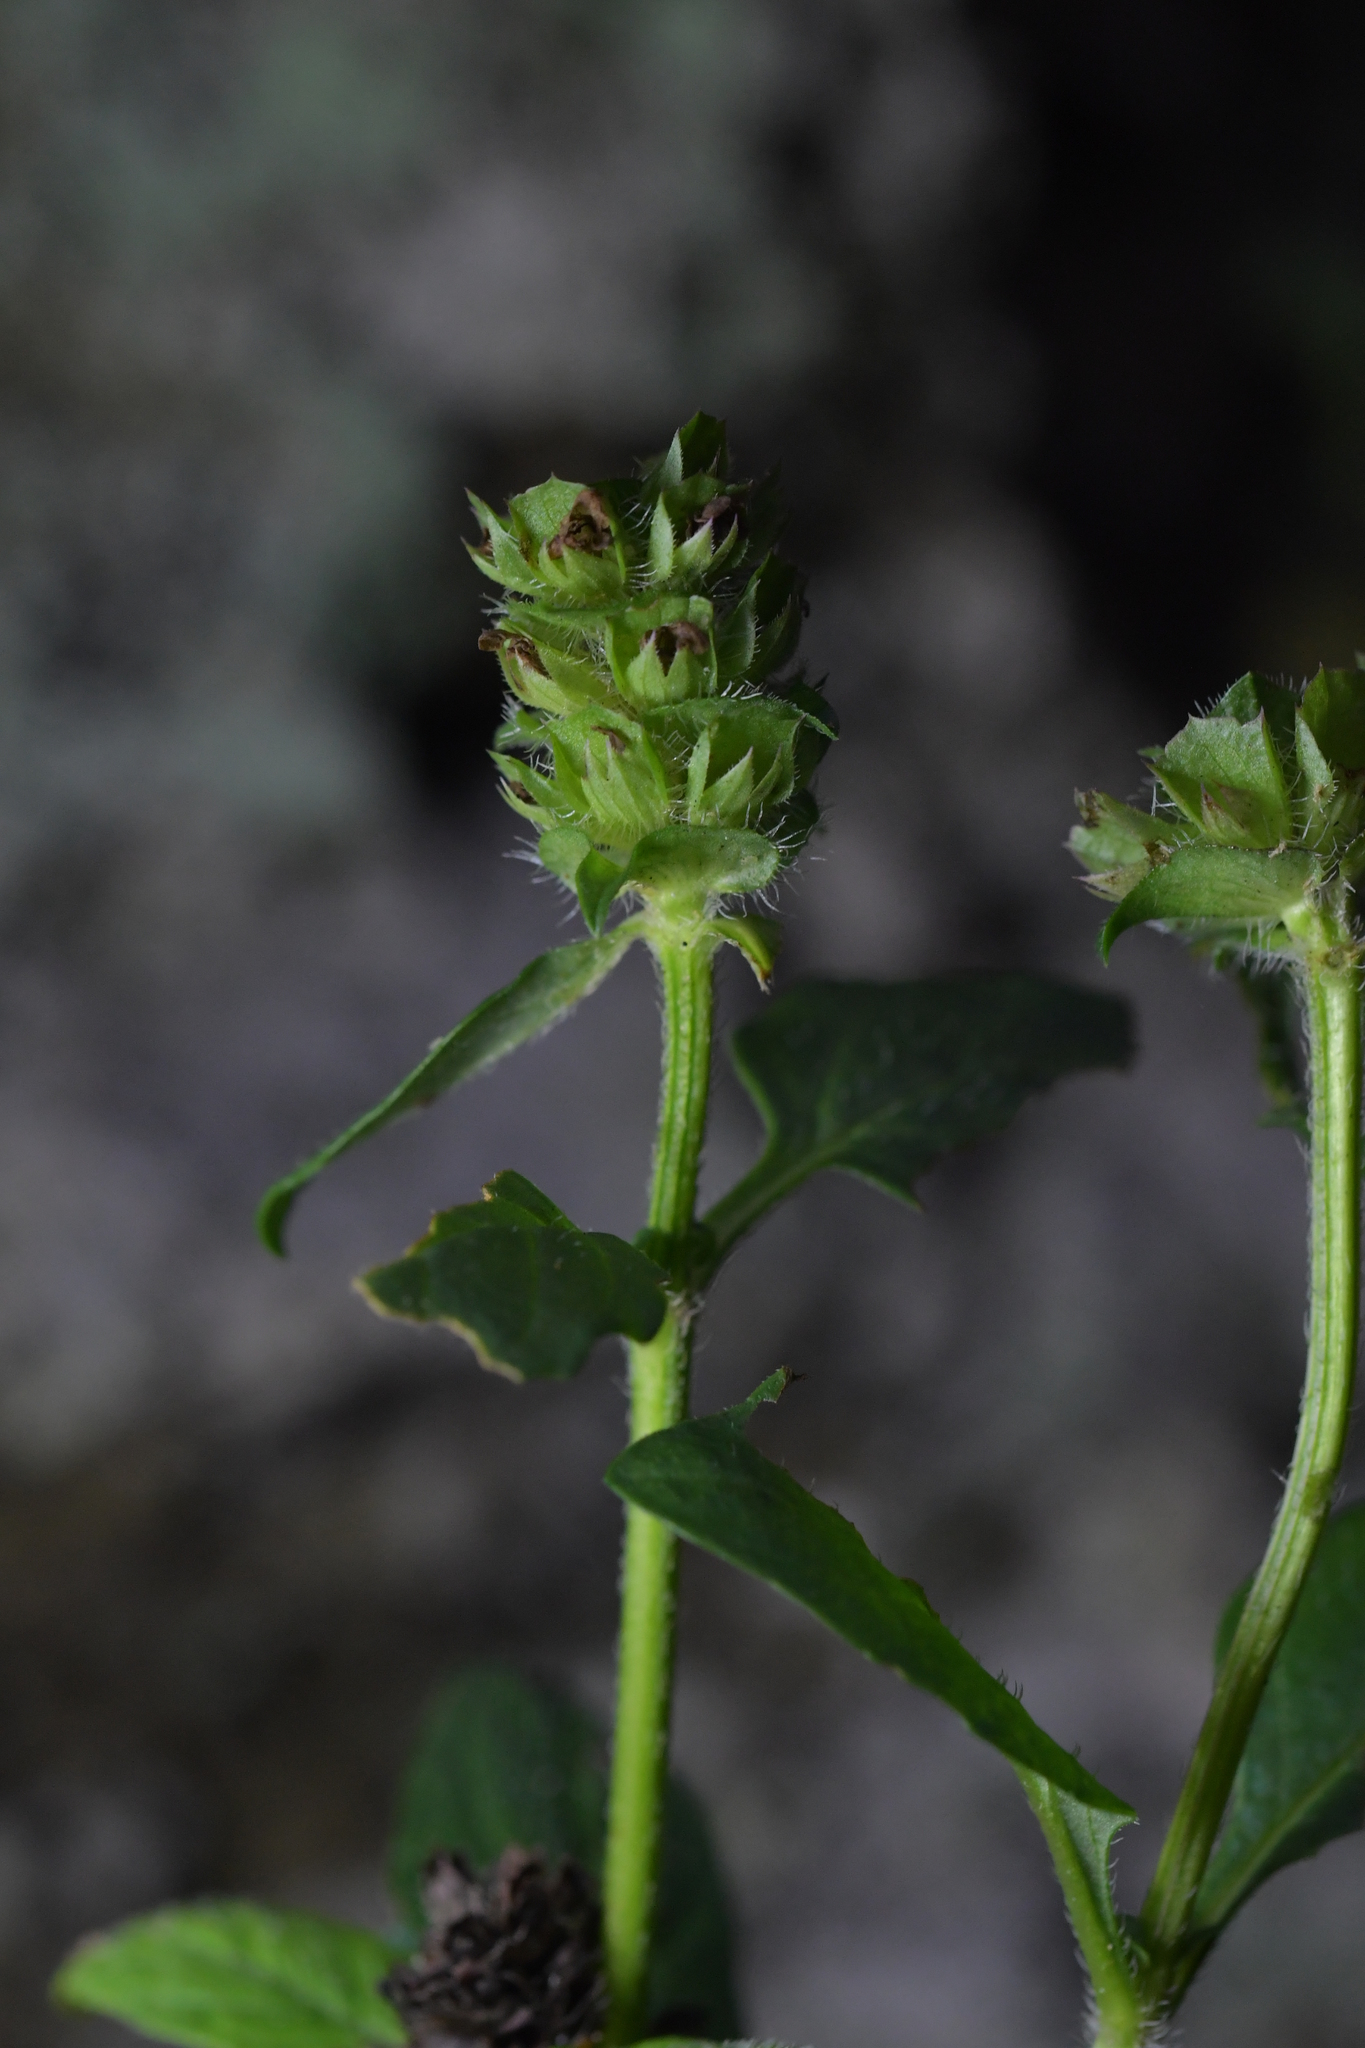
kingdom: Plantae
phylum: Tracheophyta
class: Magnoliopsida
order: Lamiales
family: Lamiaceae
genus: Prunella
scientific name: Prunella vulgaris
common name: Heal-all
